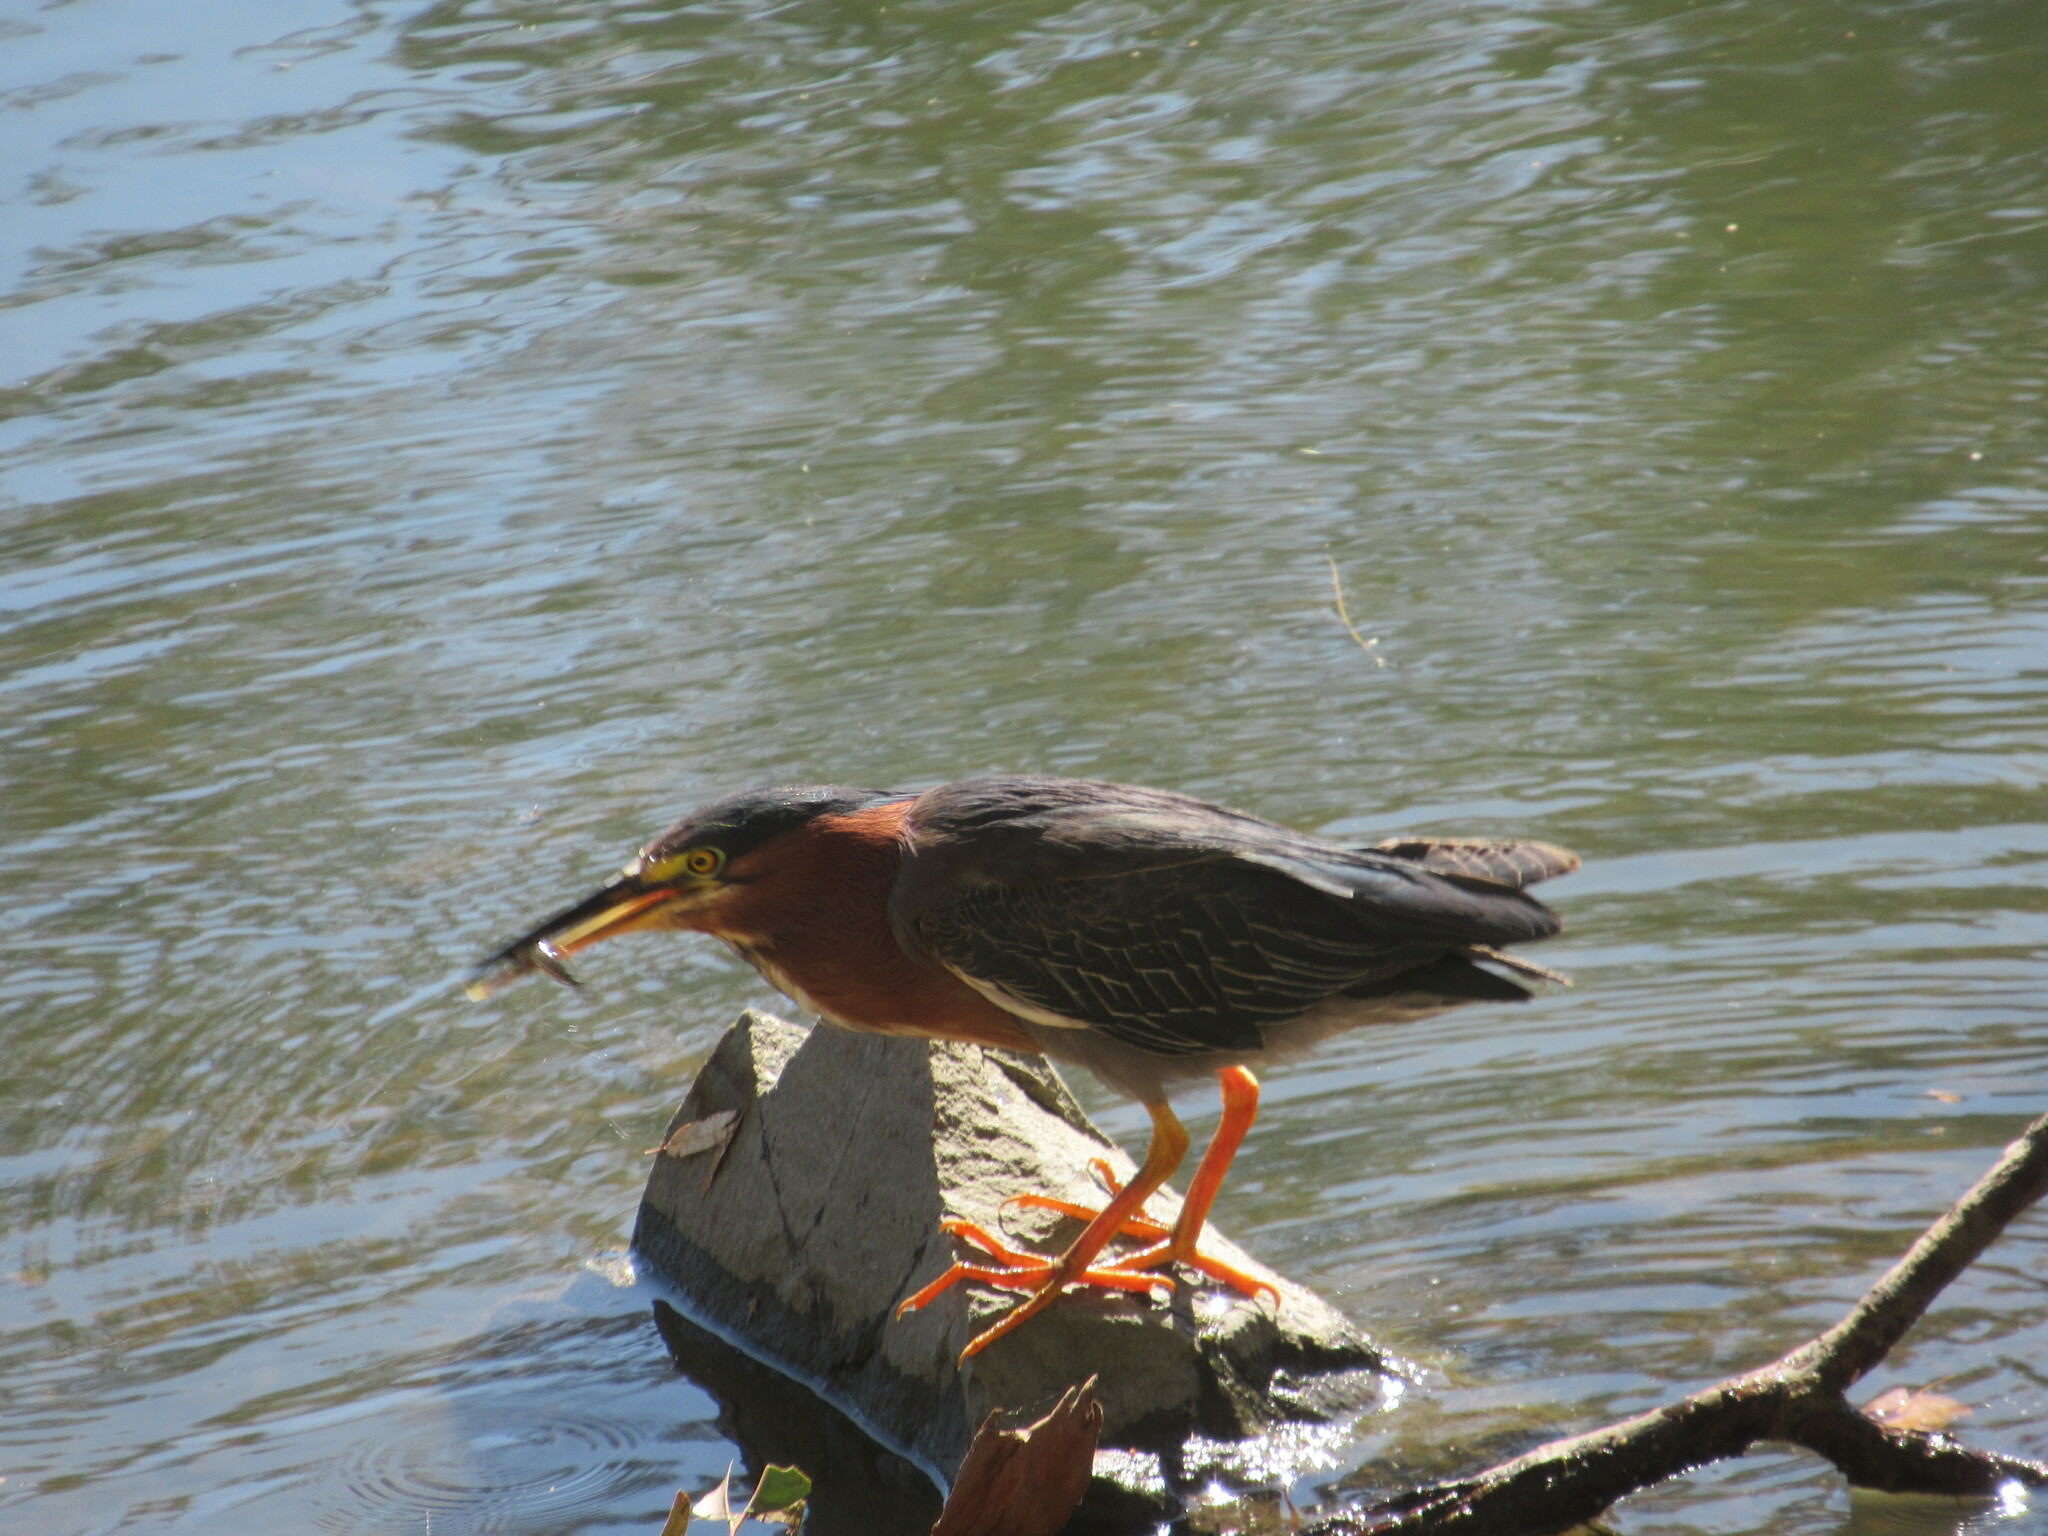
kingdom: Animalia
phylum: Chordata
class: Aves
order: Pelecaniformes
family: Ardeidae
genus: Butorides
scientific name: Butorides virescens
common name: Green heron
